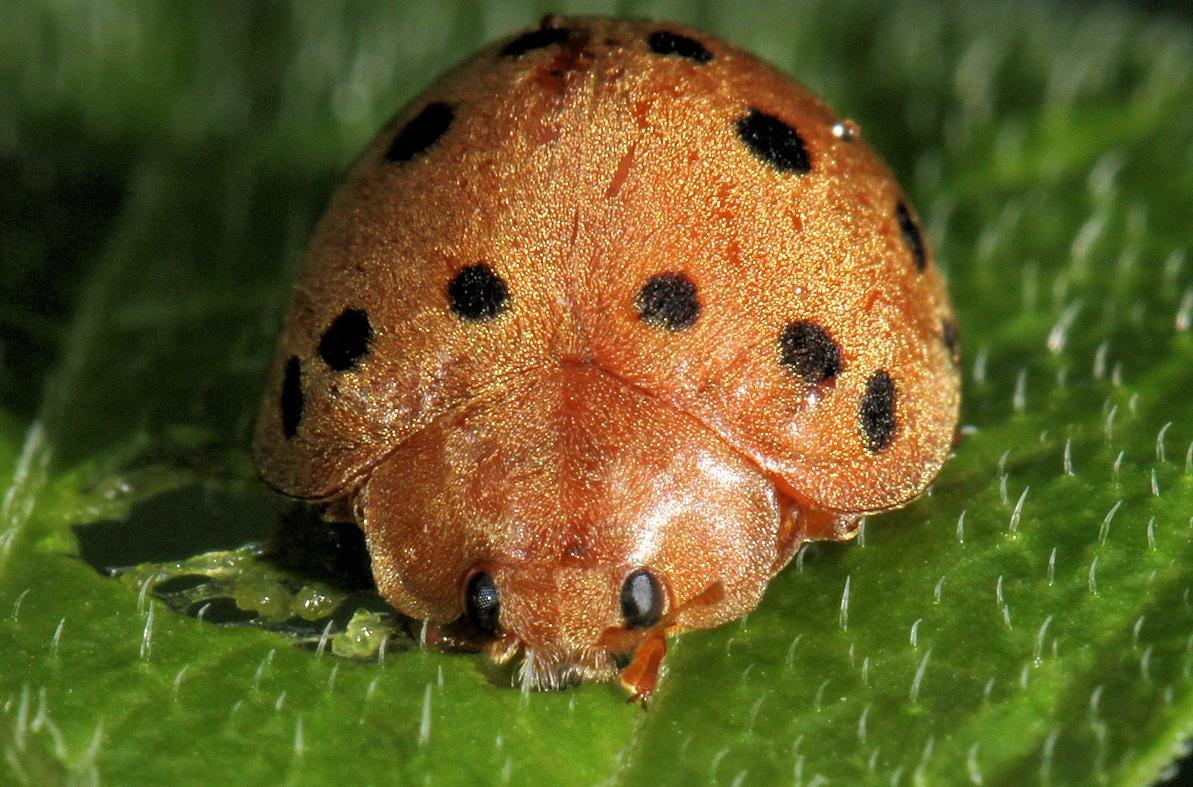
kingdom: Animalia
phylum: Arthropoda
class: Insecta
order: Coleoptera
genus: Solanophila
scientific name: Solanophila
